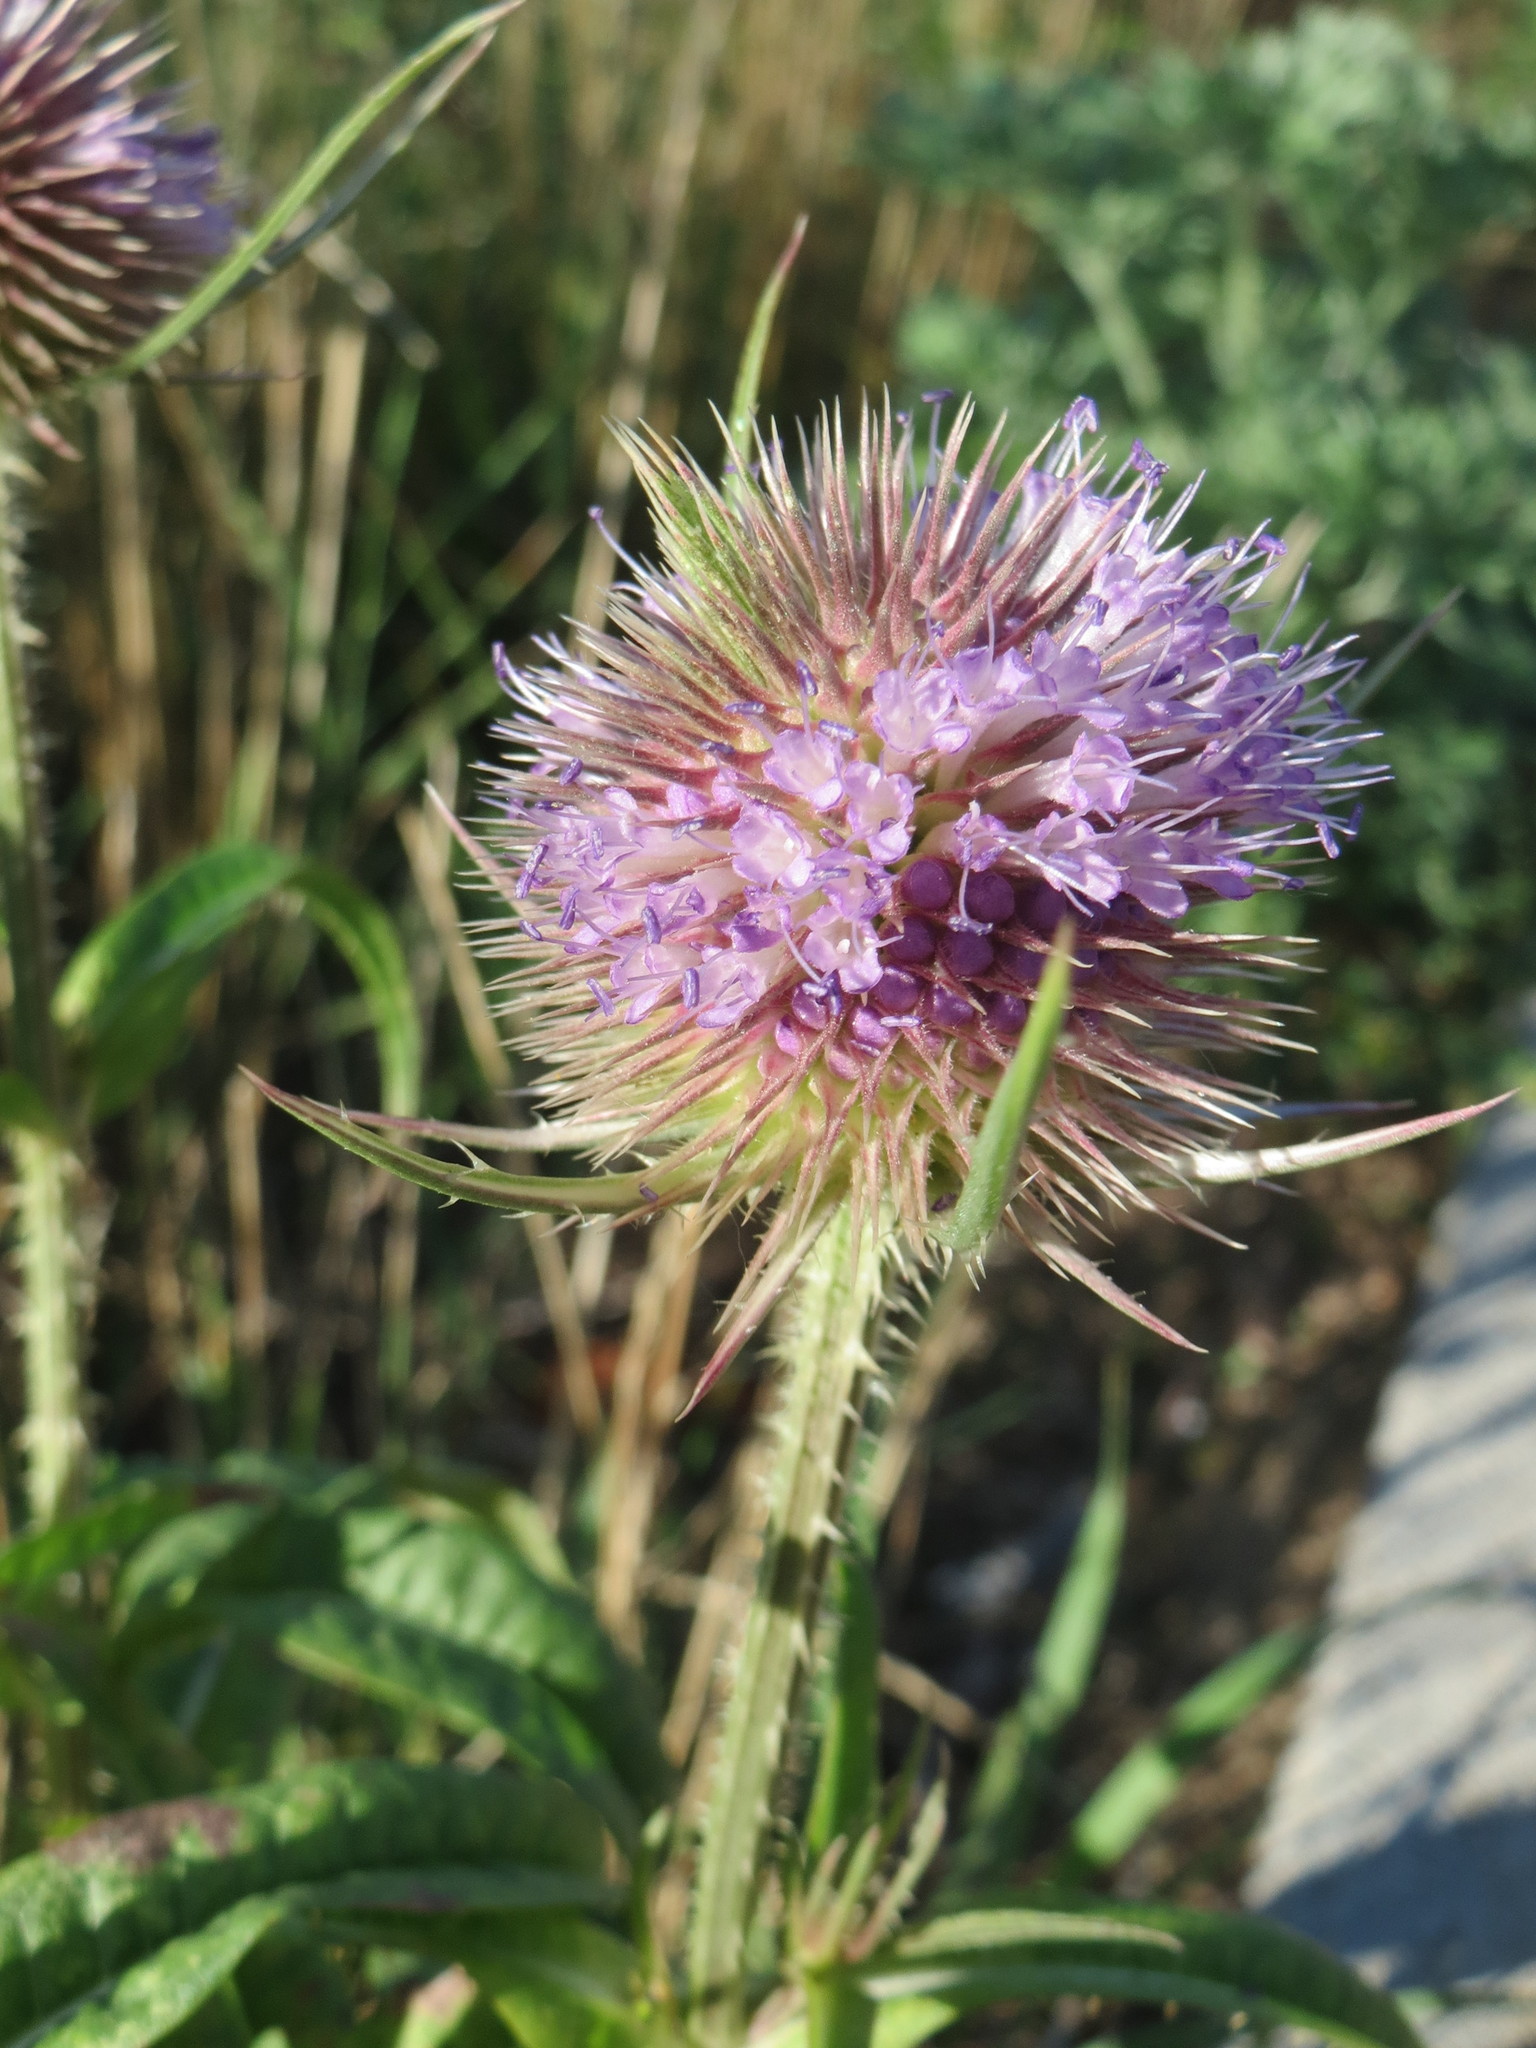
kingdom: Plantae
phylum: Tracheophyta
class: Magnoliopsida
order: Dipsacales
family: Caprifoliaceae
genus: Dipsacus
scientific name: Dipsacus fullonum
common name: Teasel
